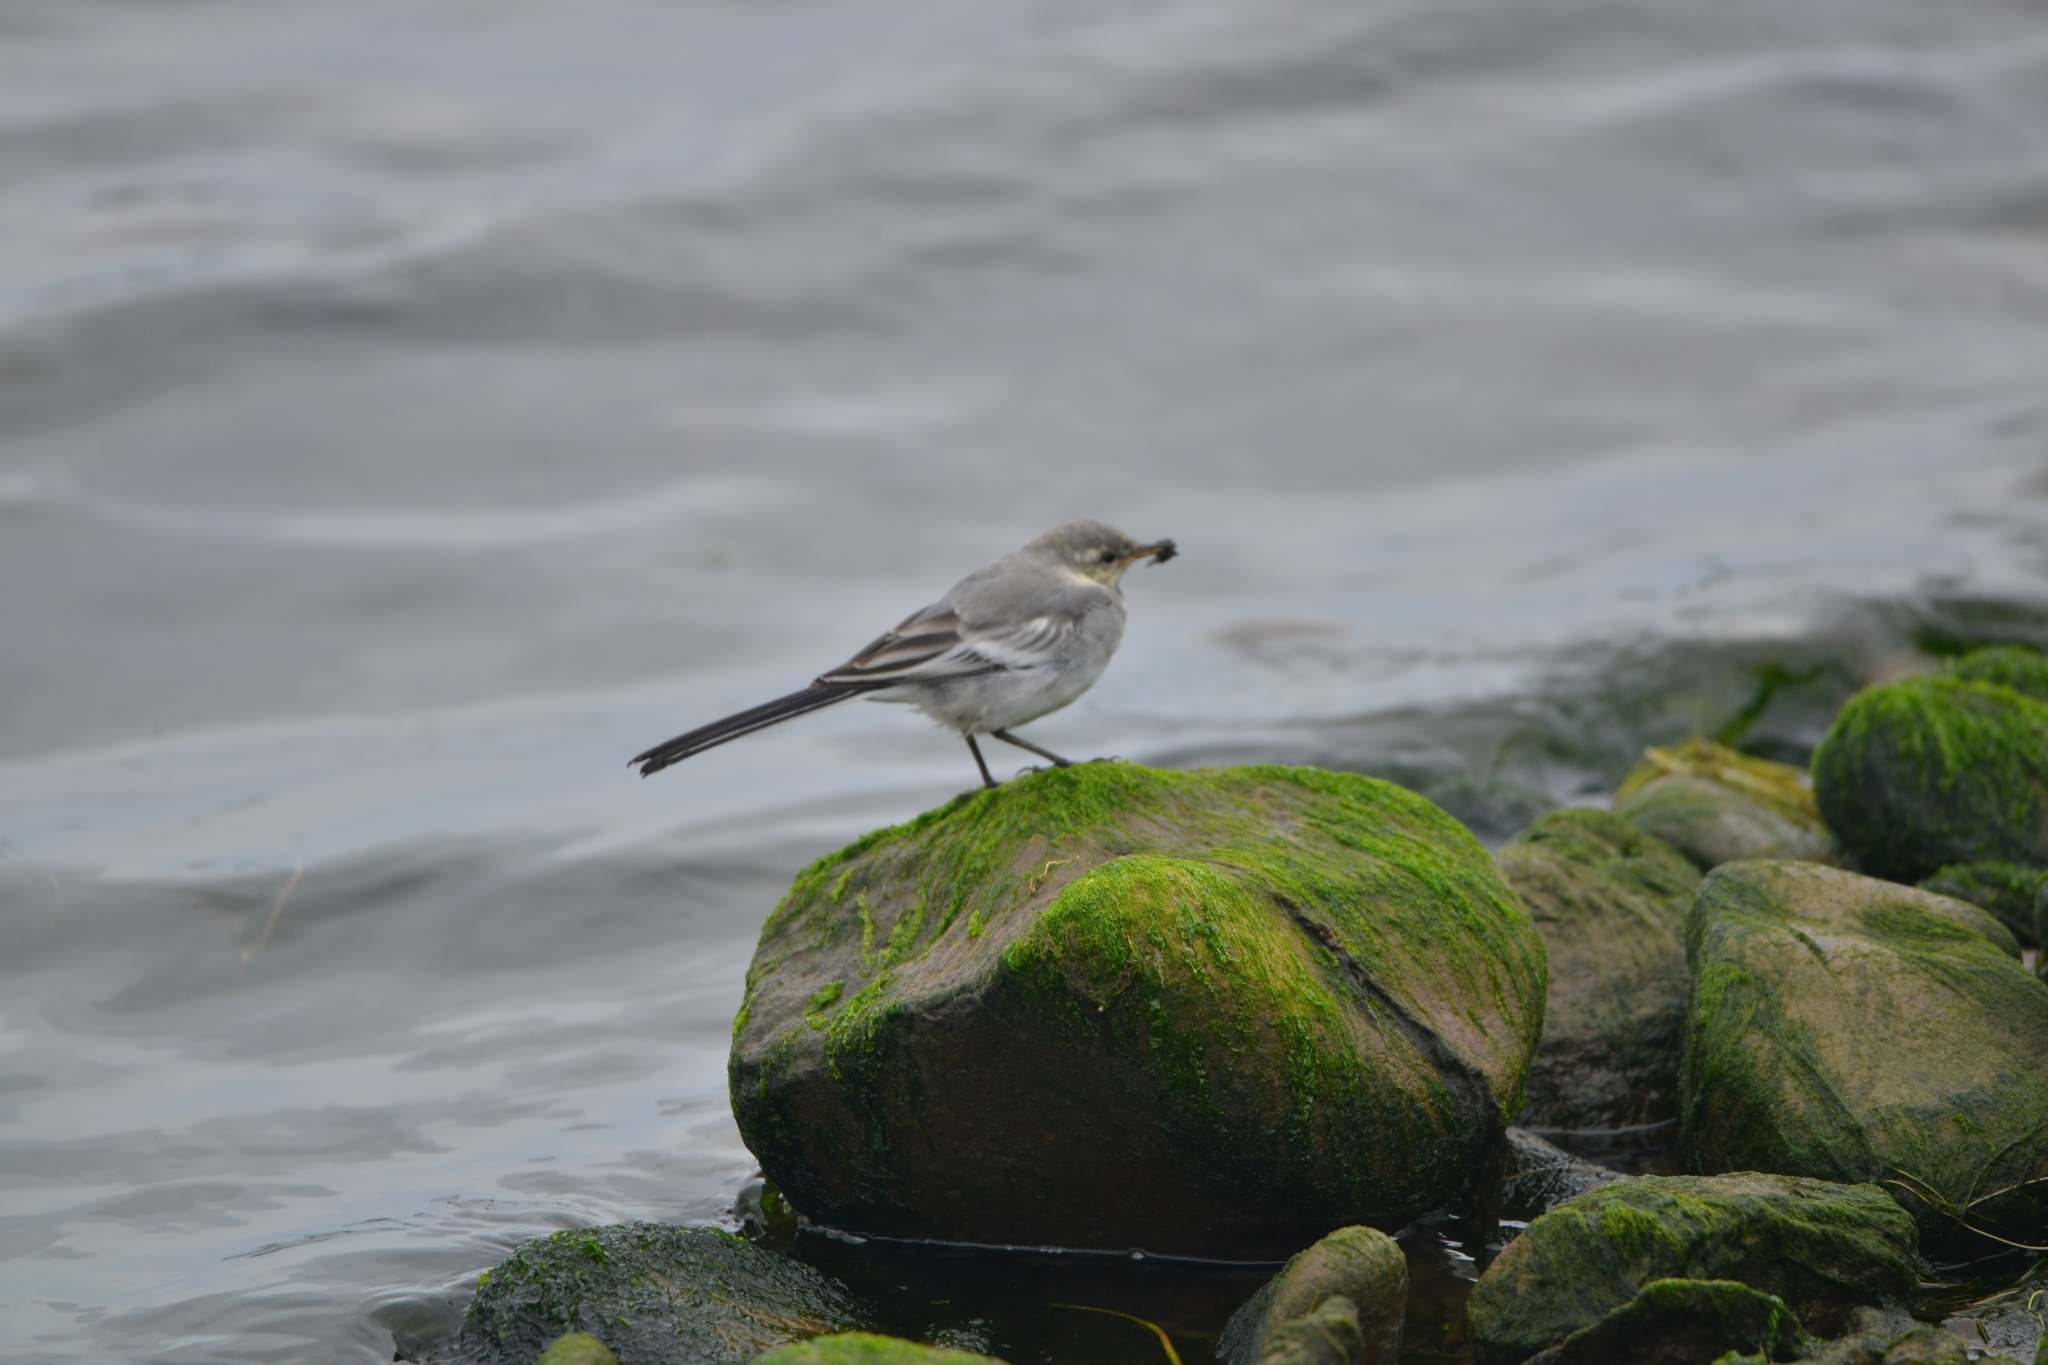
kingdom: Animalia
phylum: Chordata
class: Aves
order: Passeriformes
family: Motacillidae
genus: Motacilla
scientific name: Motacilla alba
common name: White wagtail
